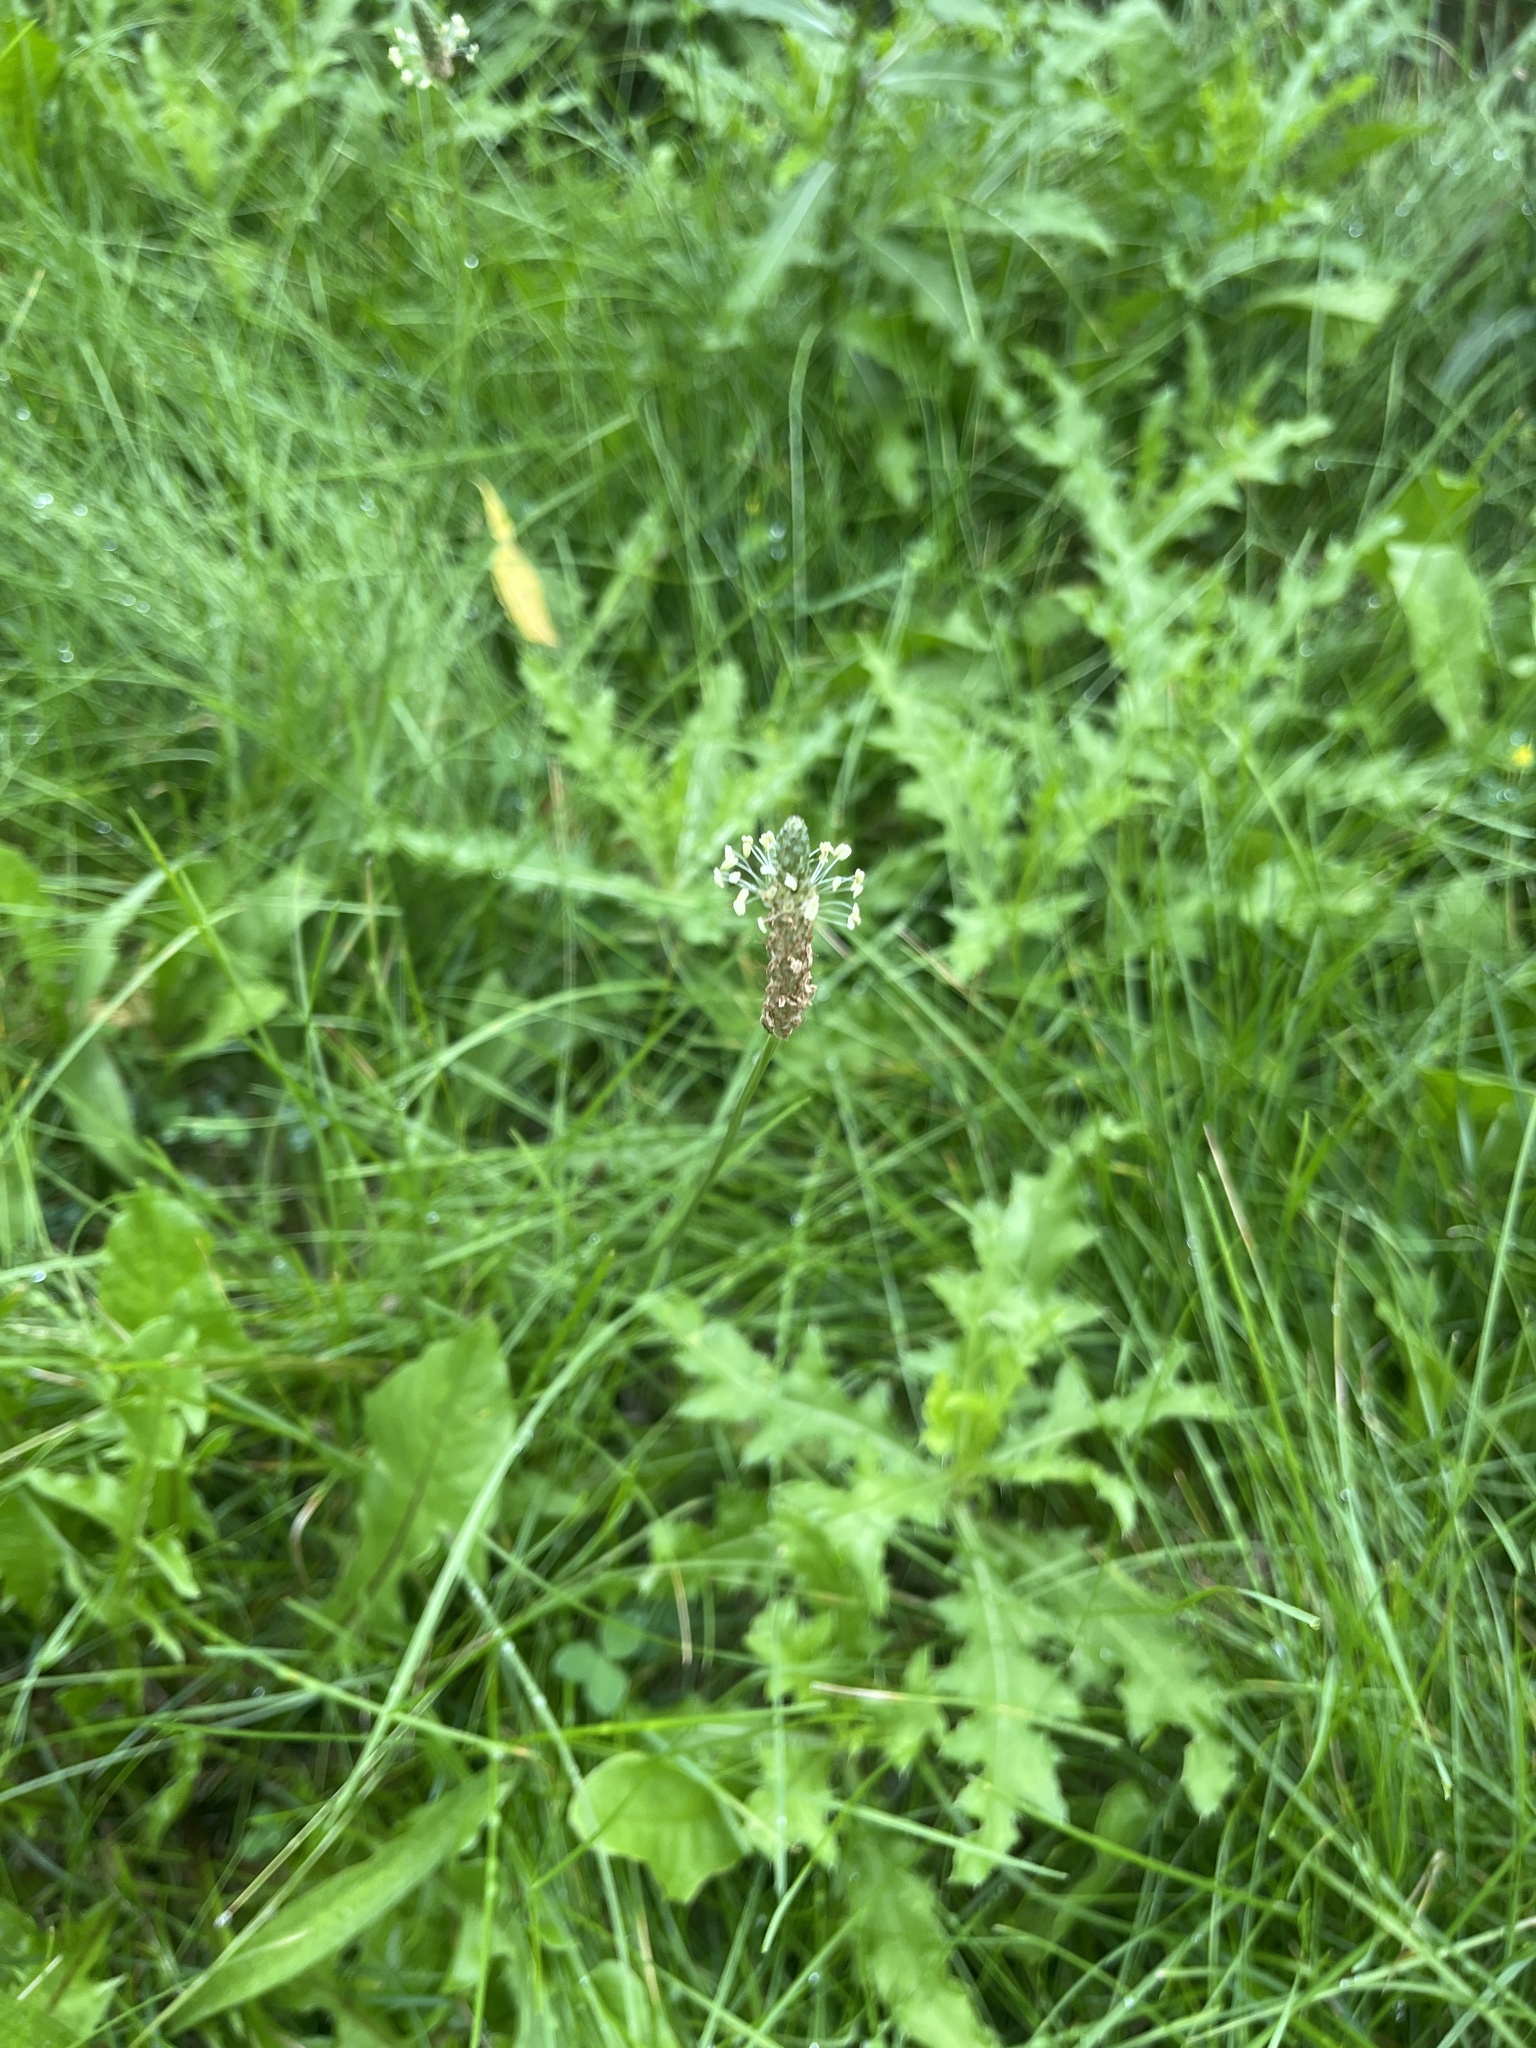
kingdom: Plantae
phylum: Tracheophyta
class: Magnoliopsida
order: Lamiales
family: Plantaginaceae
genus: Plantago
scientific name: Plantago lanceolata
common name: Ribwort plantain
